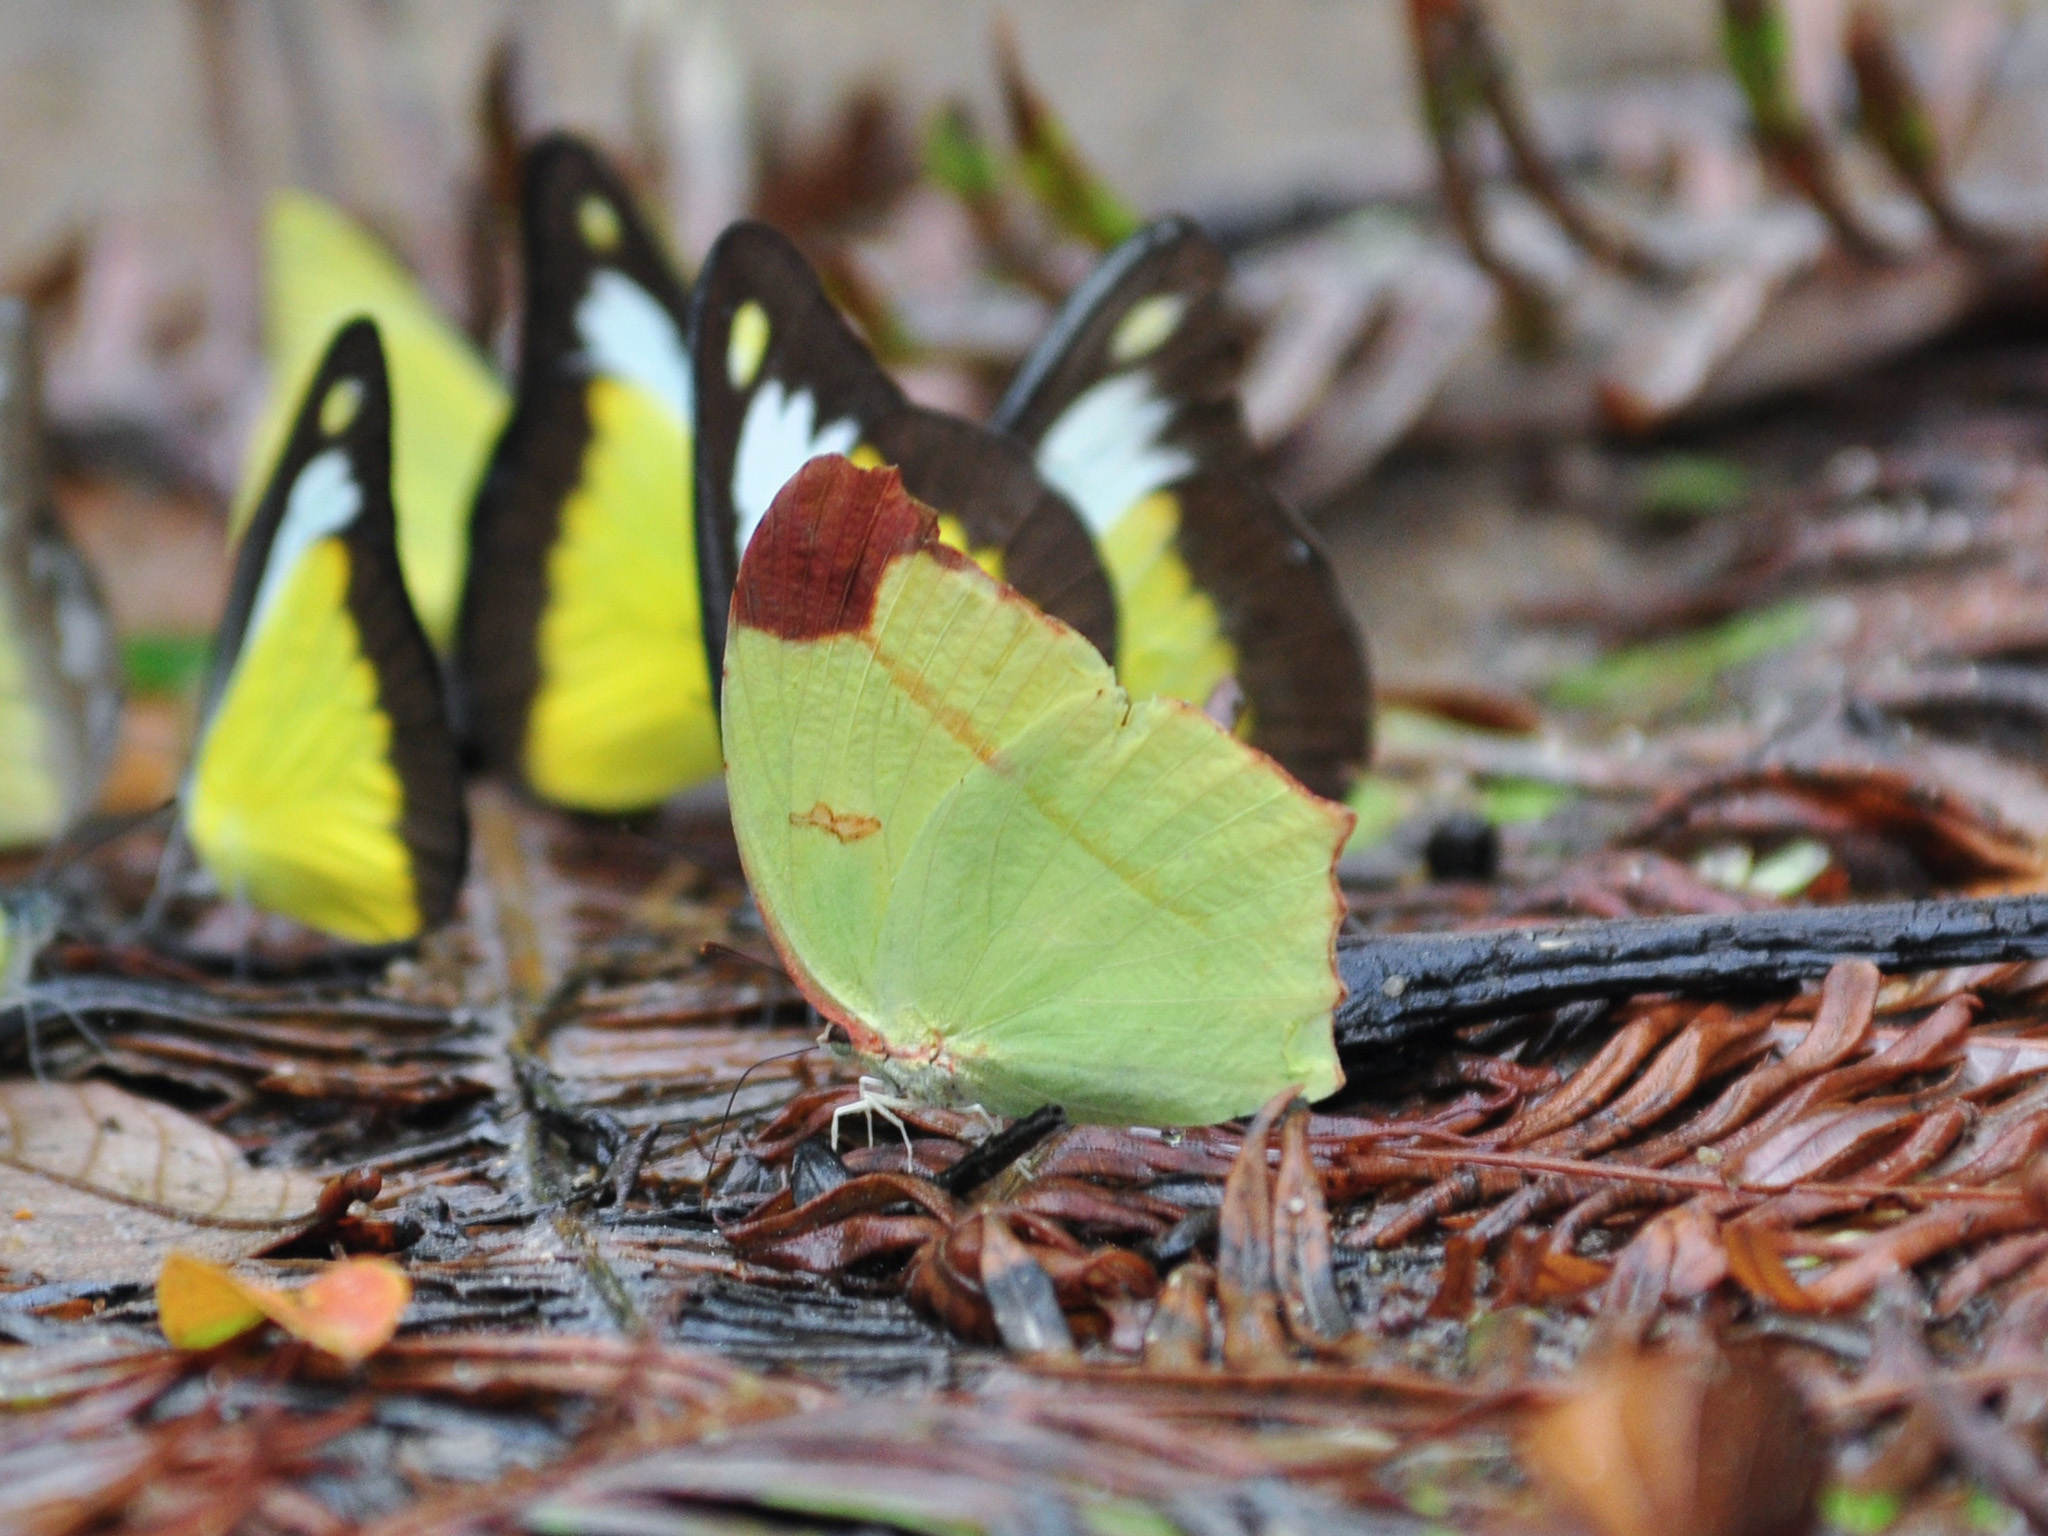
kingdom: Animalia
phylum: Arthropoda
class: Insecta
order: Lepidoptera
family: Pieridae
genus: Dercas
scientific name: Dercas gobrias
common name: Angled sulfur
